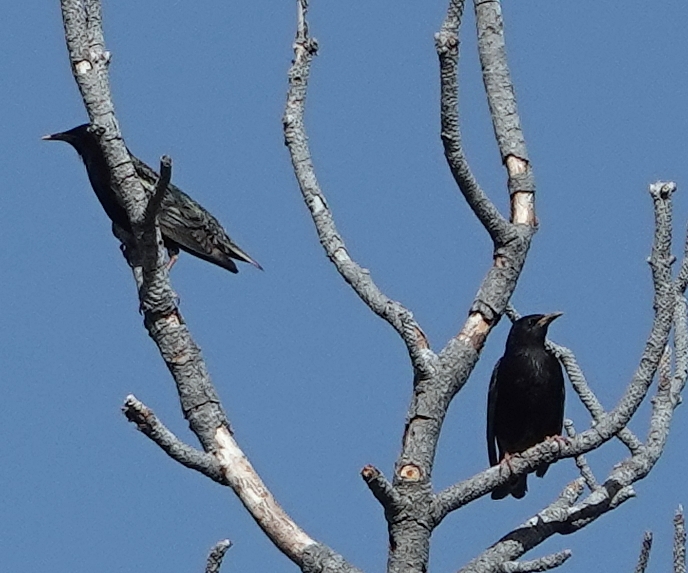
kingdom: Animalia
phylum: Chordata
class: Aves
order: Passeriformes
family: Sturnidae
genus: Sturnus
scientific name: Sturnus vulgaris
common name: Common starling
